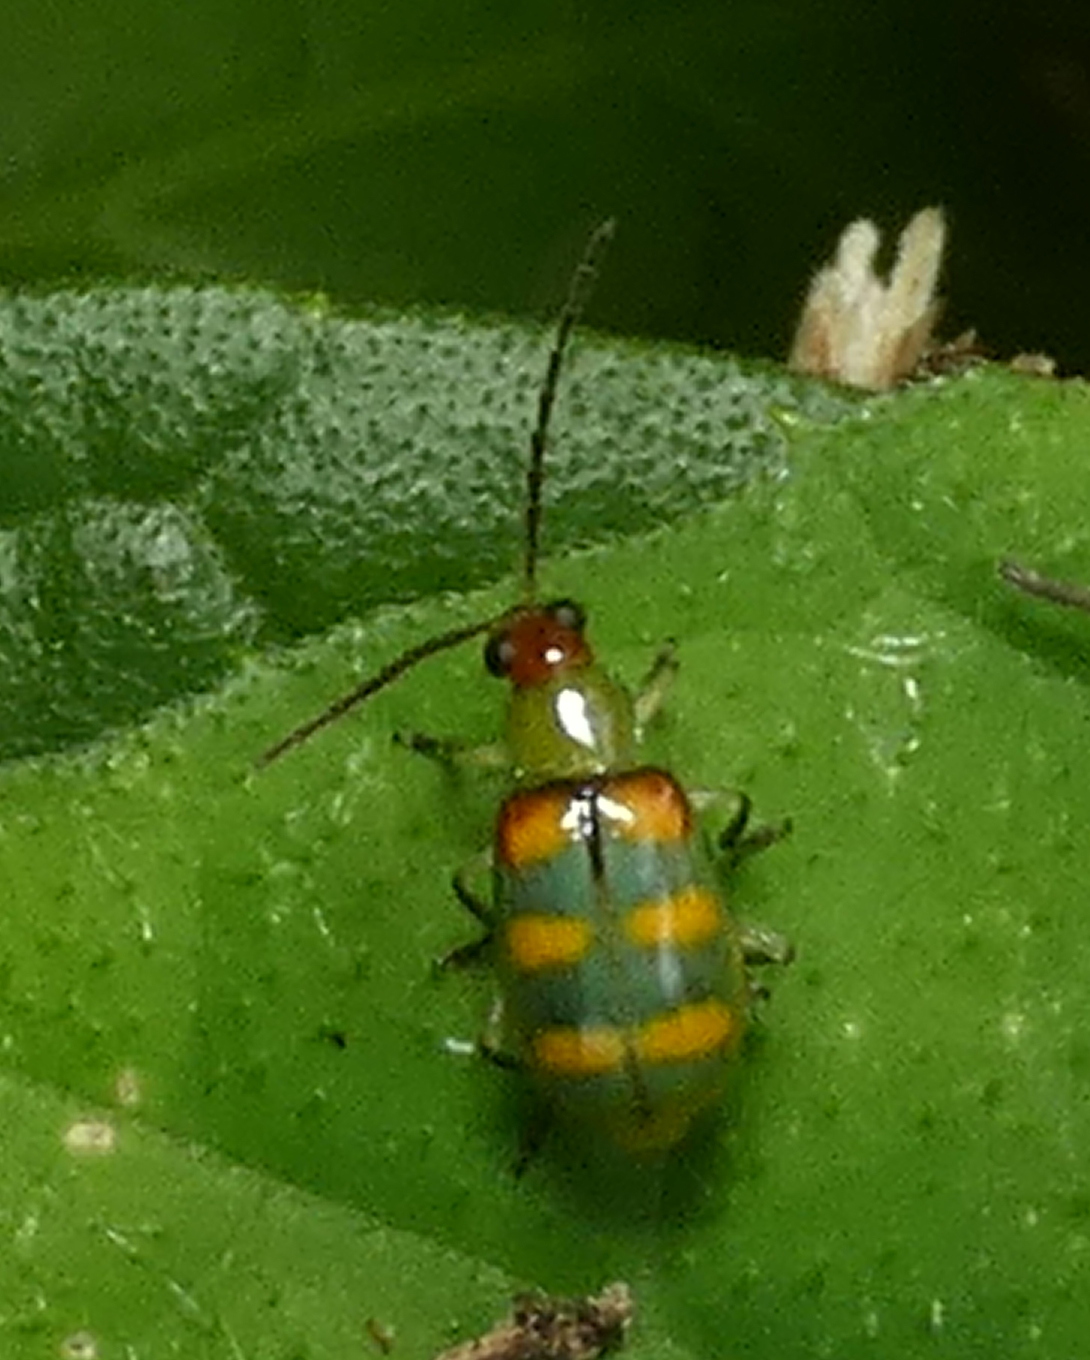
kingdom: Animalia
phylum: Arthropoda
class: Insecta
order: Coleoptera
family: Chrysomelidae
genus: Diabrotica
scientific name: Diabrotica speciosa
